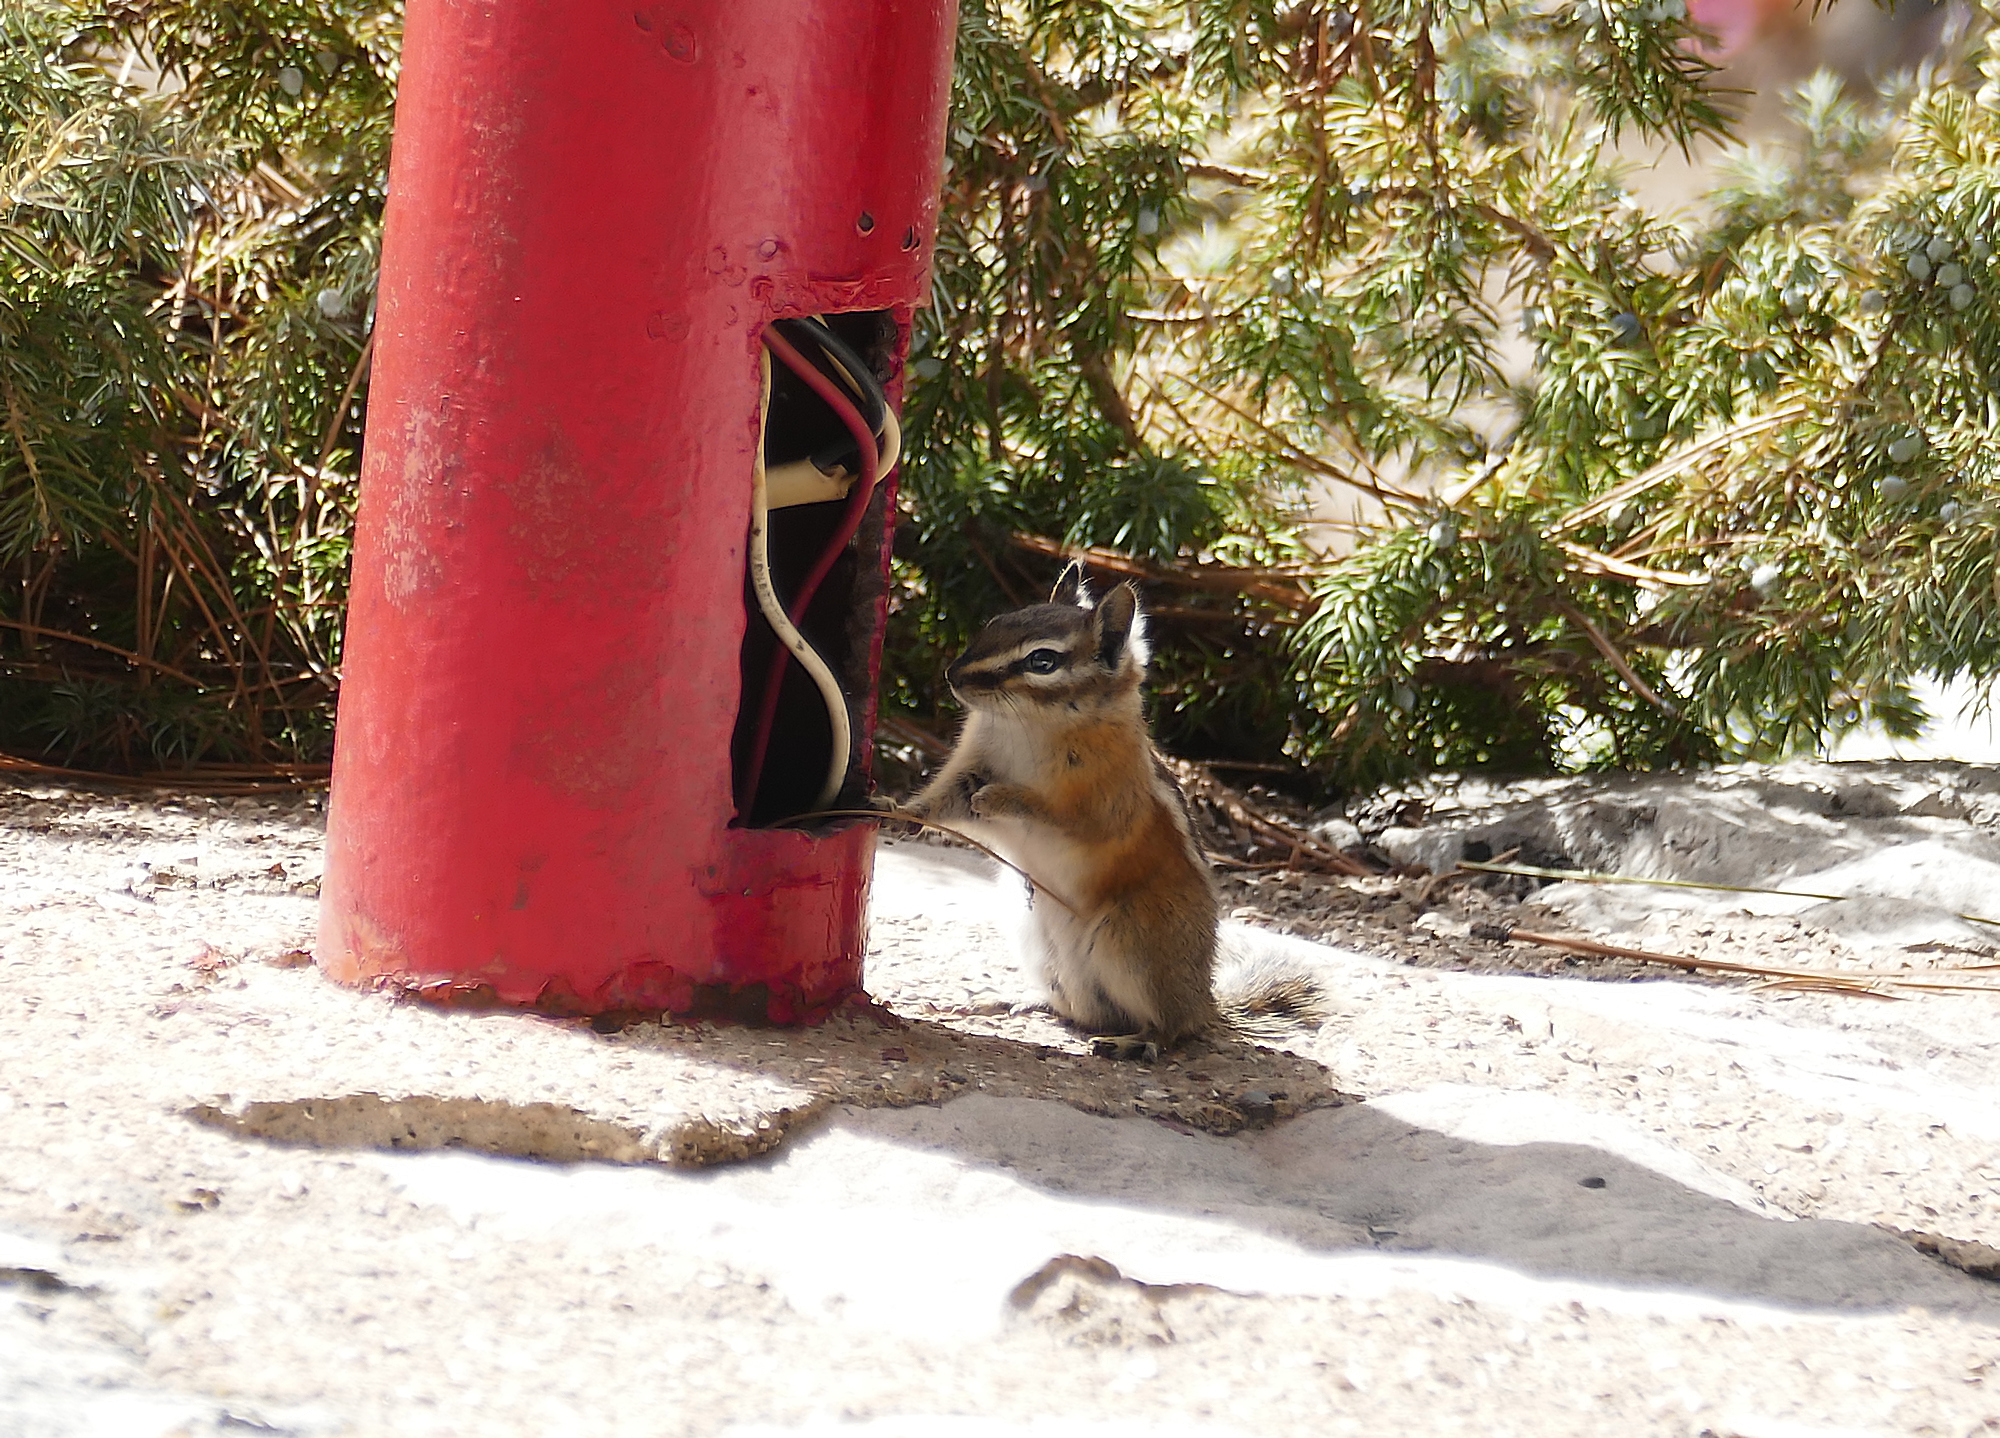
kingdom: Animalia
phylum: Chordata
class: Mammalia
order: Rodentia
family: Sciuridae
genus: Tamias
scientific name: Tamias umbrinus
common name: Uinta chipmunk
